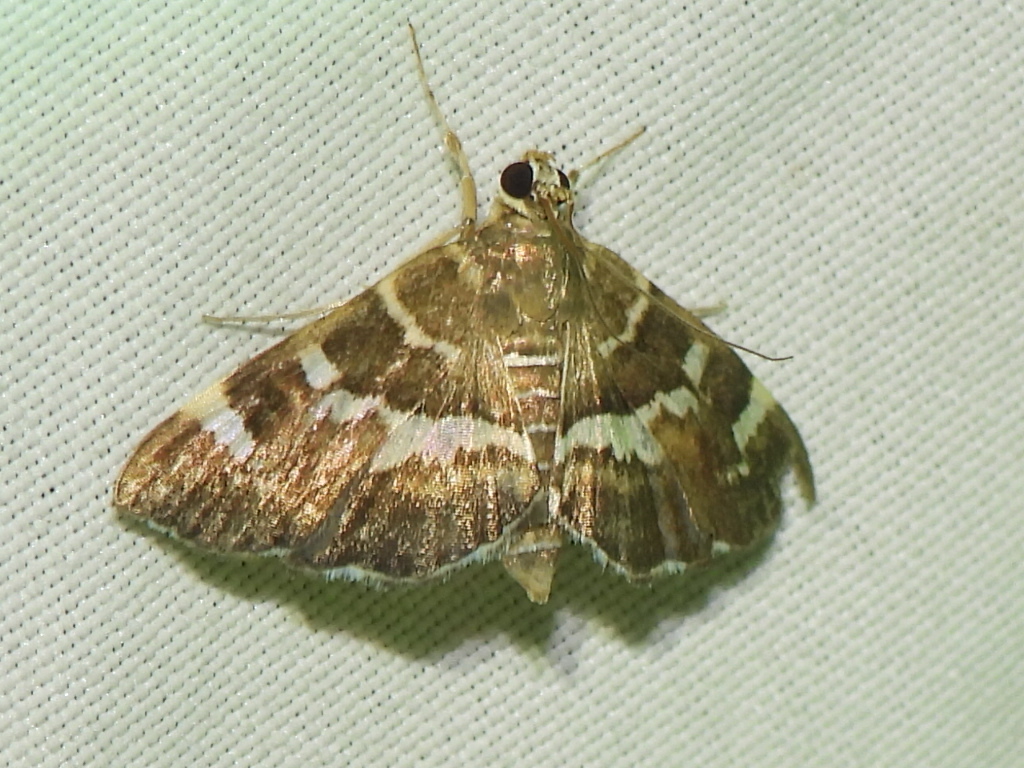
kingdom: Animalia
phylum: Arthropoda
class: Insecta
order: Lepidoptera
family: Crambidae
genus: Hymenia
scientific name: Hymenia perspectalis
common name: Spotted beet webworm
